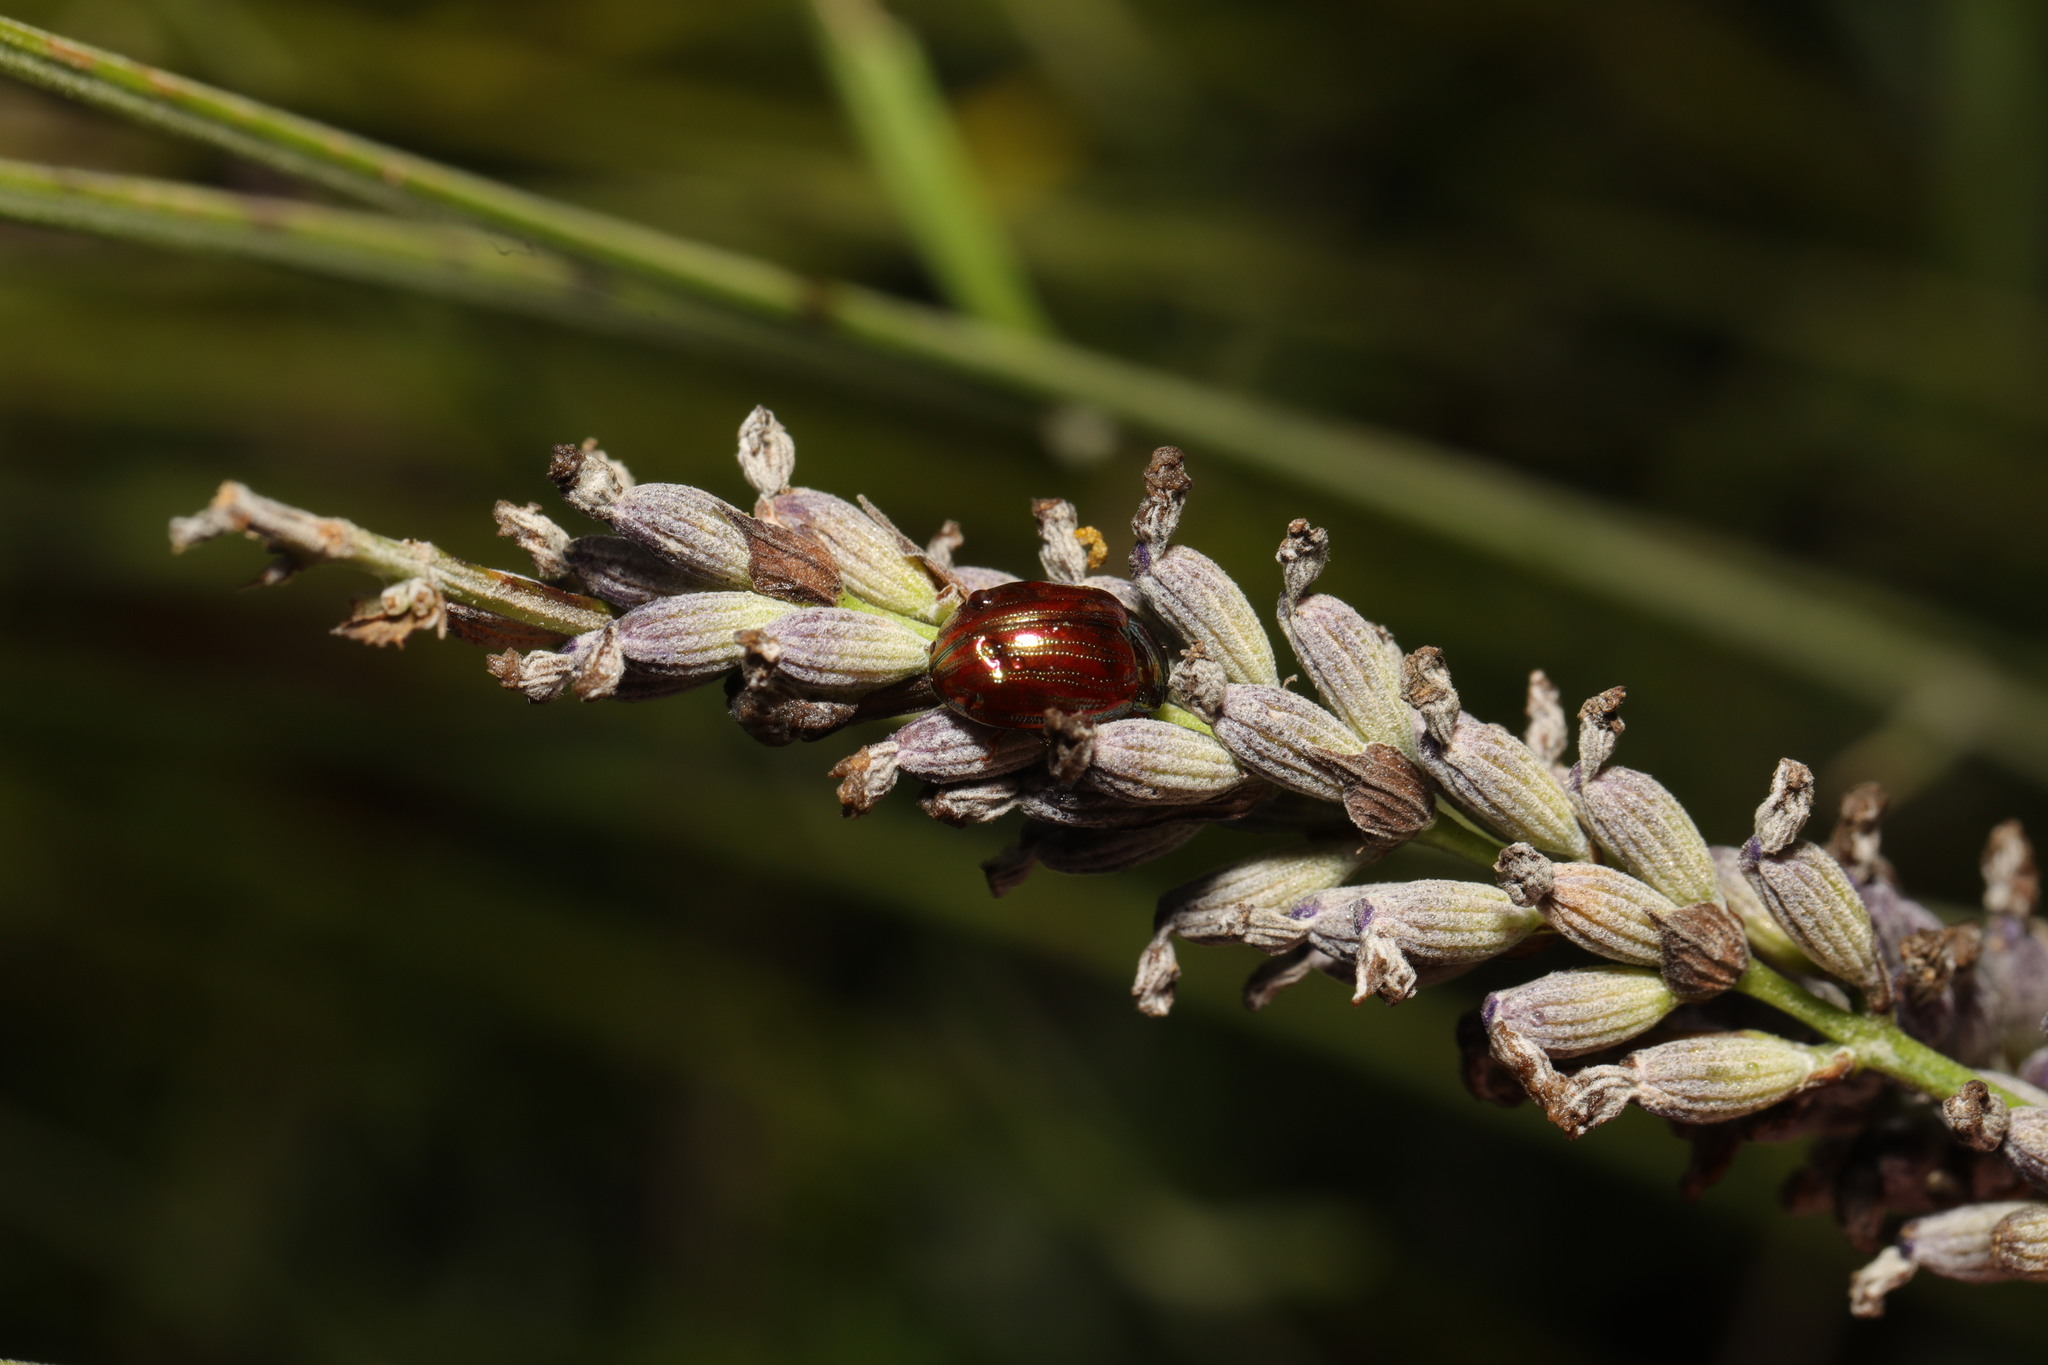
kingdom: Animalia
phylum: Arthropoda
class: Insecta
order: Coleoptera
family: Chrysomelidae
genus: Chrysolina
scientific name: Chrysolina americana
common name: Rosemary beetle
